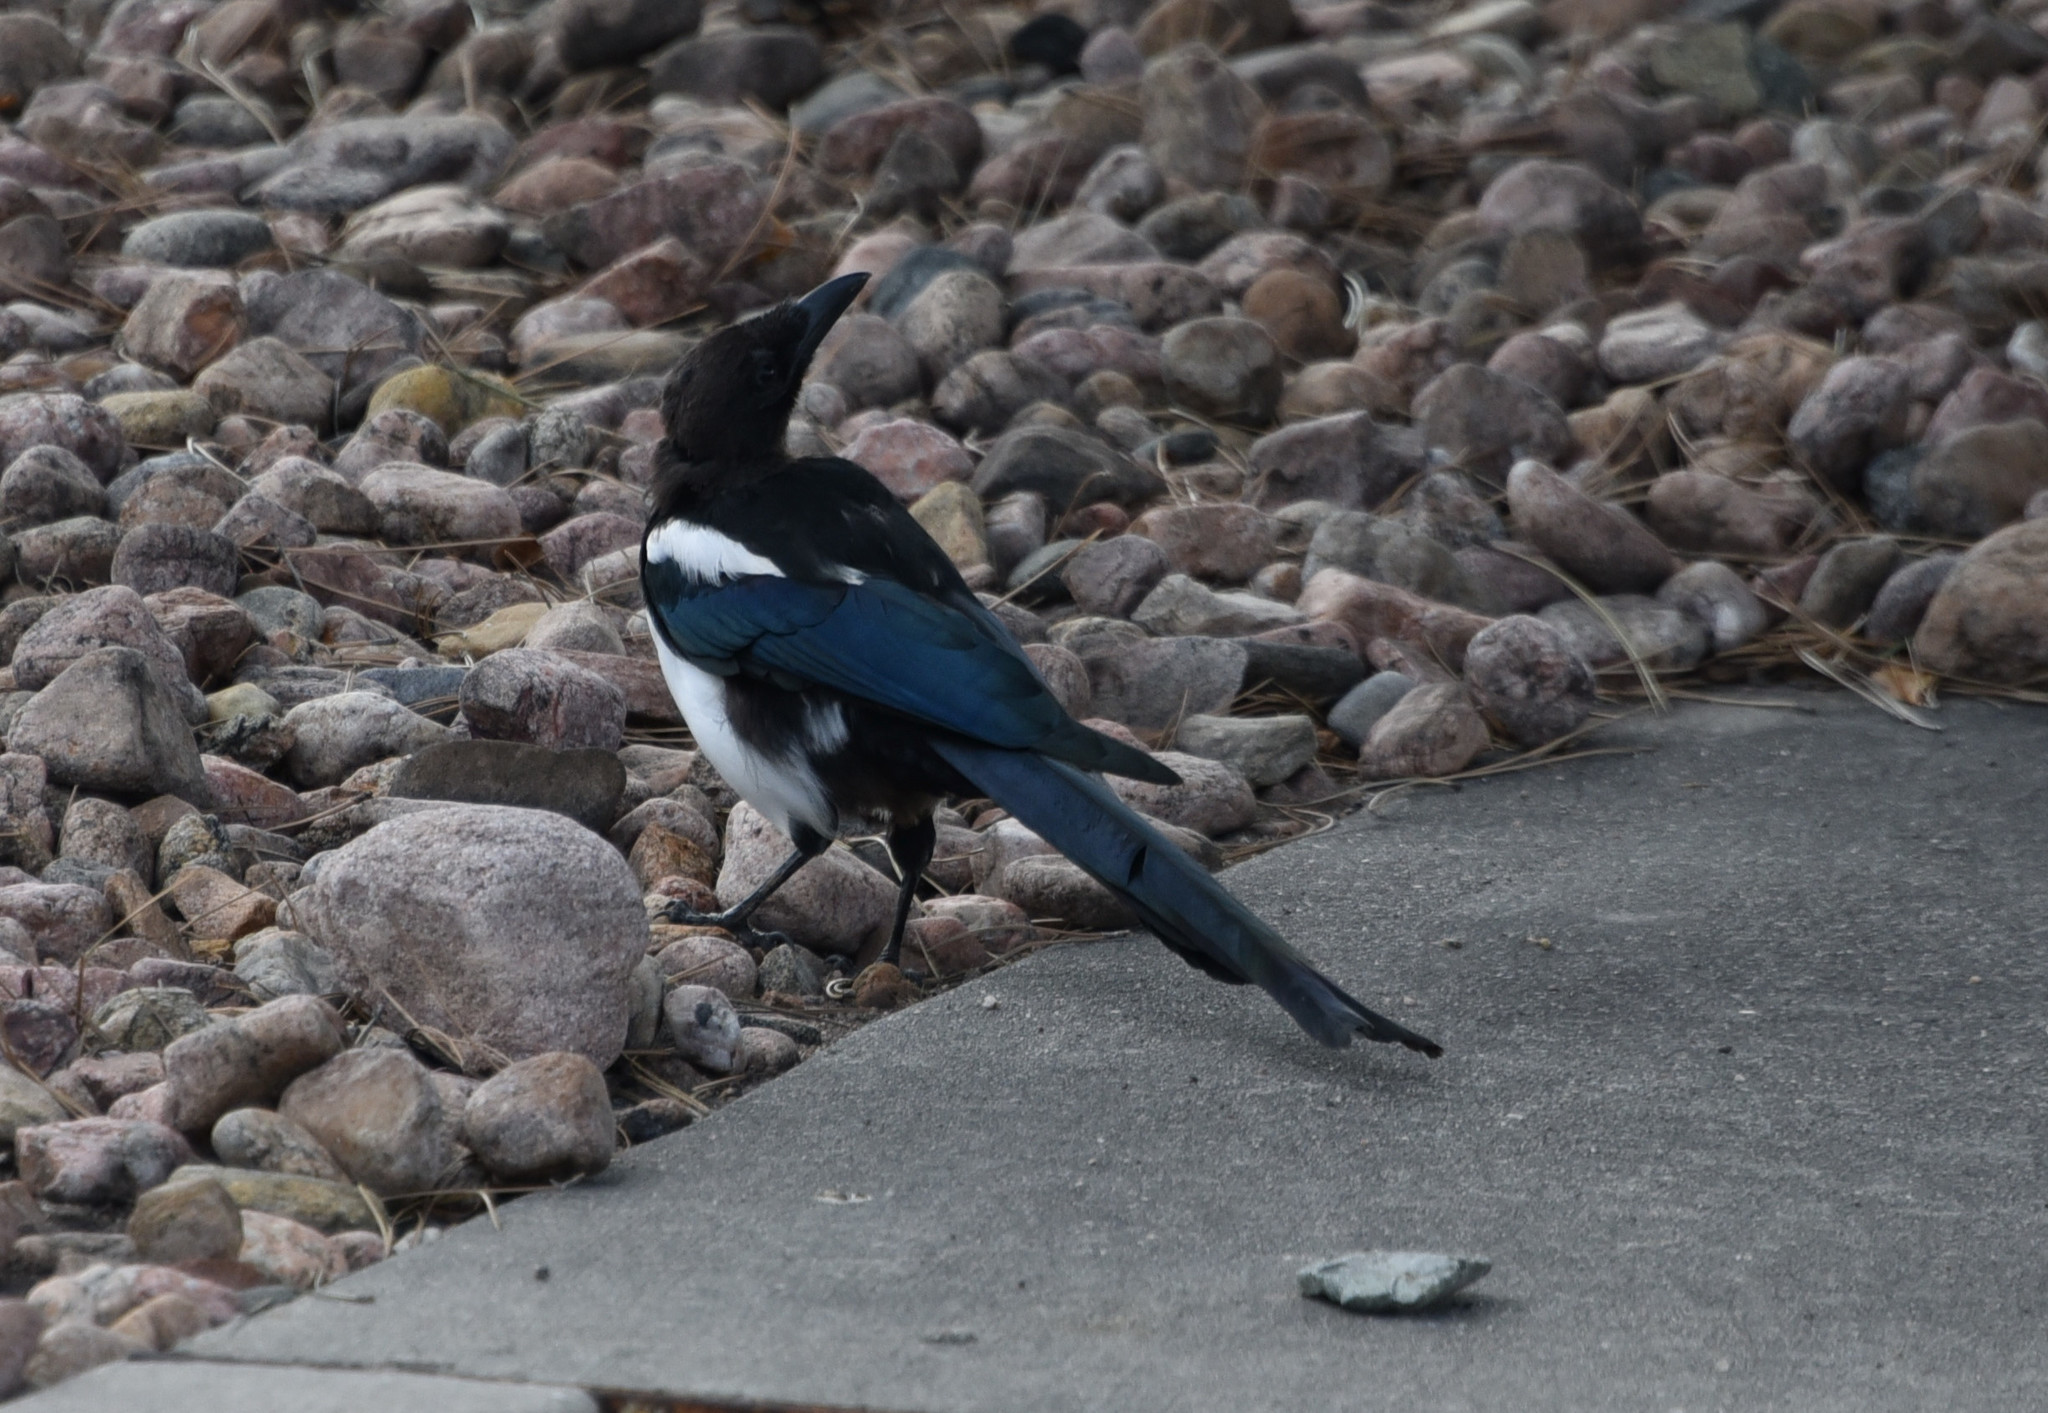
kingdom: Animalia
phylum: Chordata
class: Aves
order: Passeriformes
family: Corvidae
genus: Pica
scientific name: Pica hudsonia
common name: Black-billed magpie
